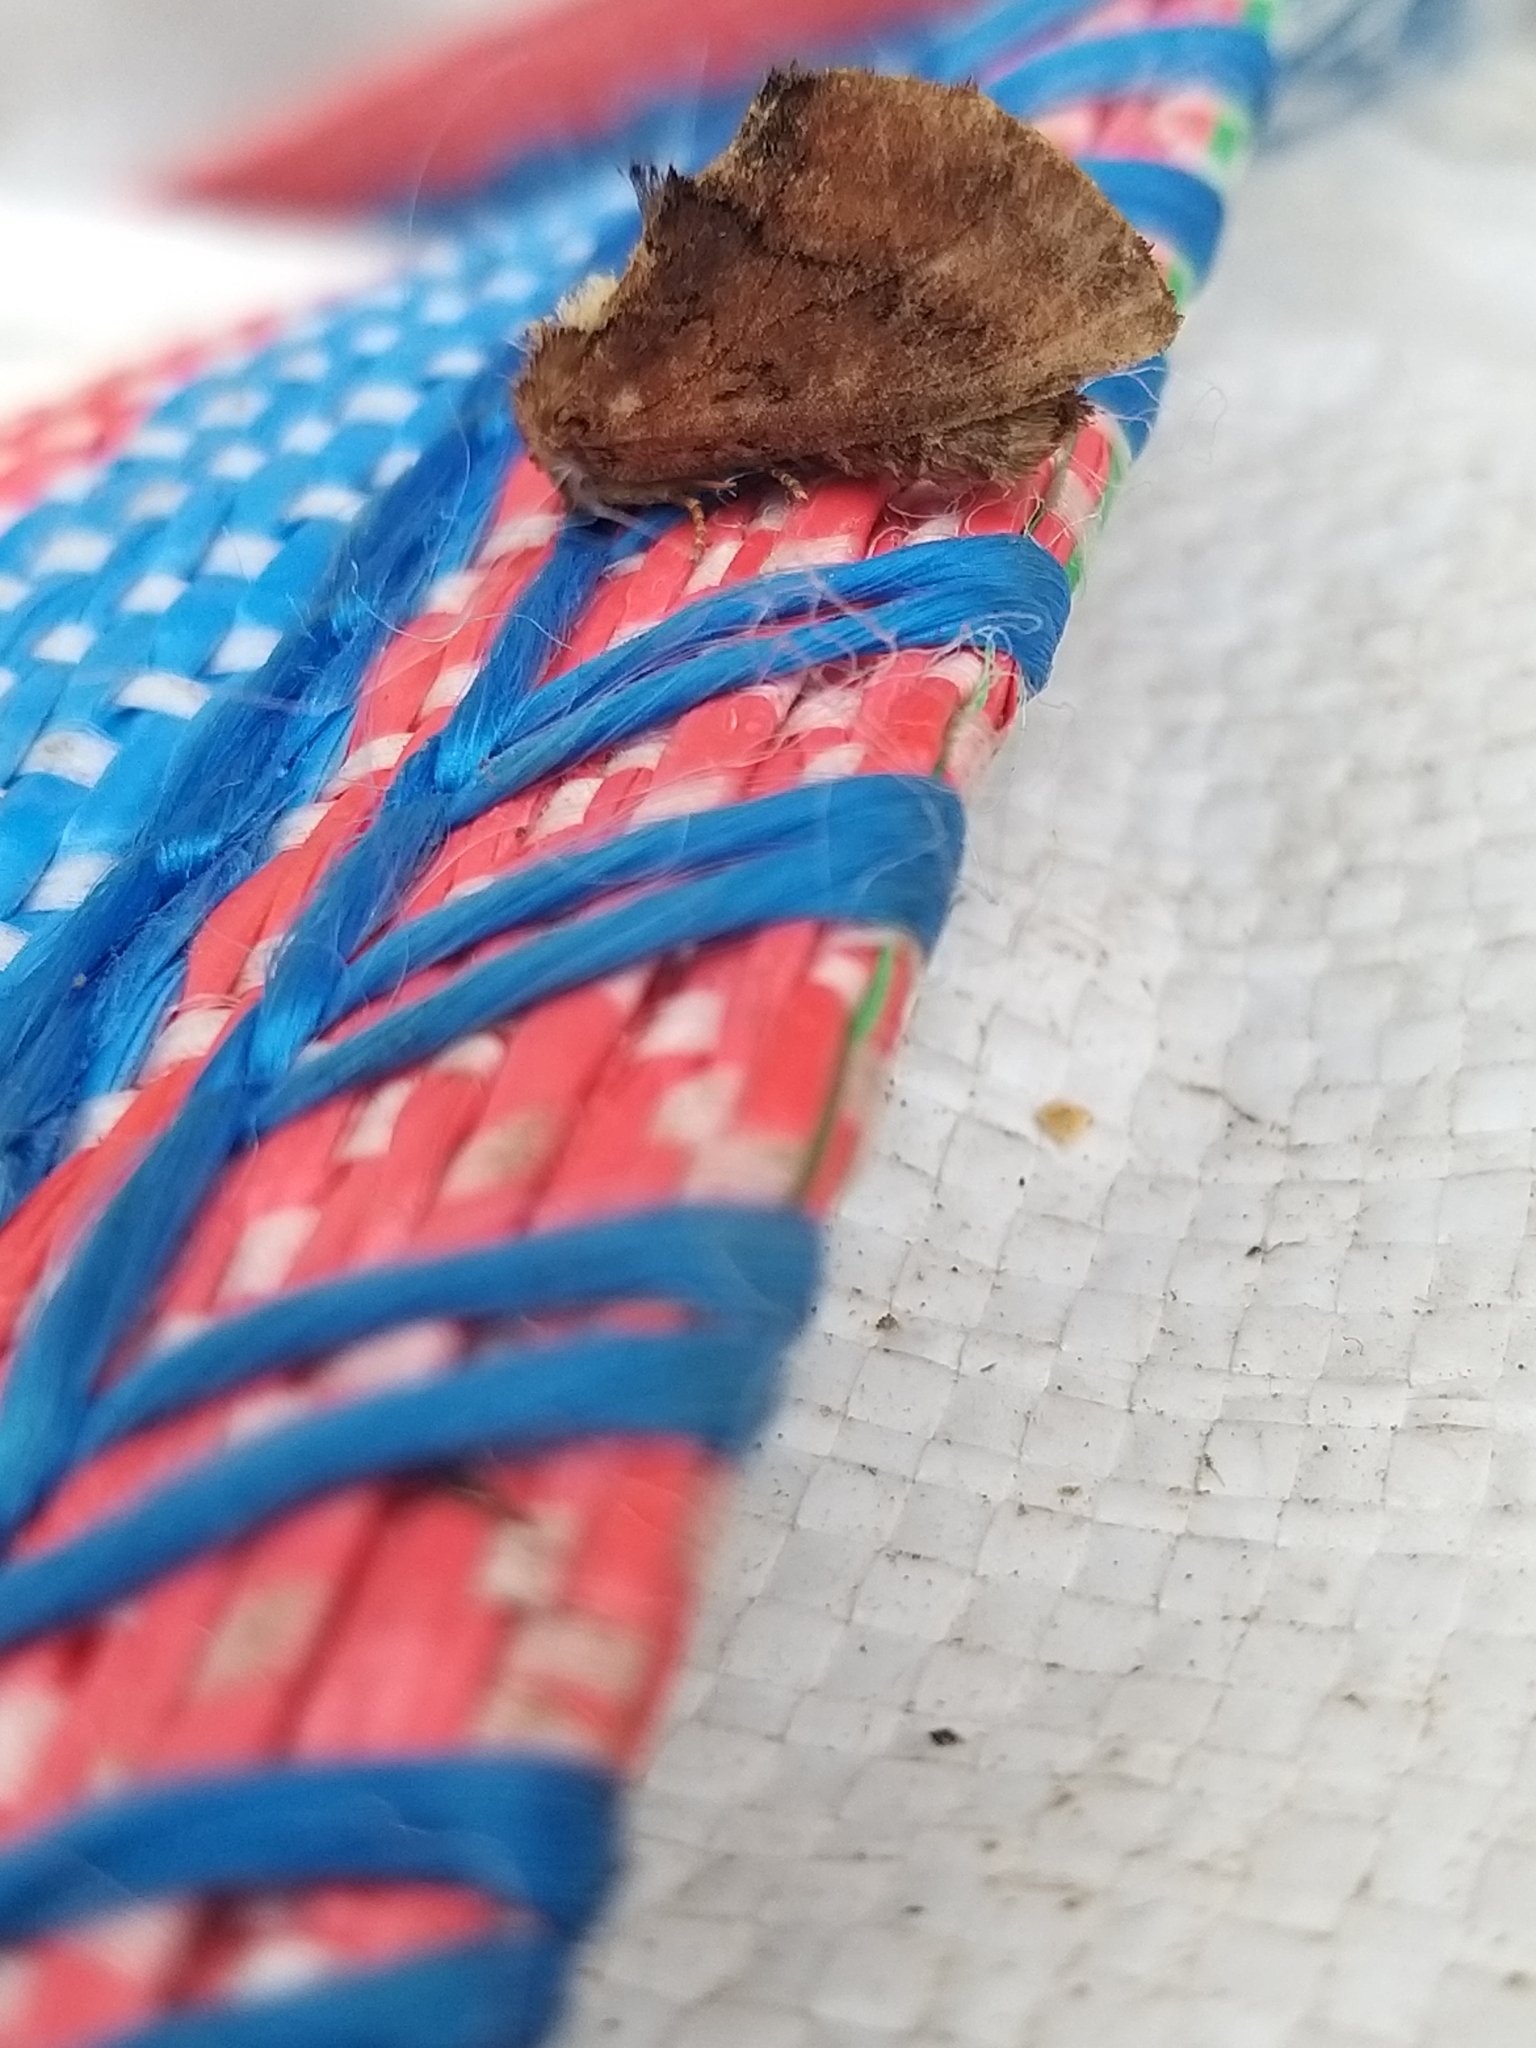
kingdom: Animalia
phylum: Arthropoda
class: Insecta
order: Lepidoptera
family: Notodontidae
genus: Ptilodon
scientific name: Ptilodon capucina
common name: Coxcomb prominent
